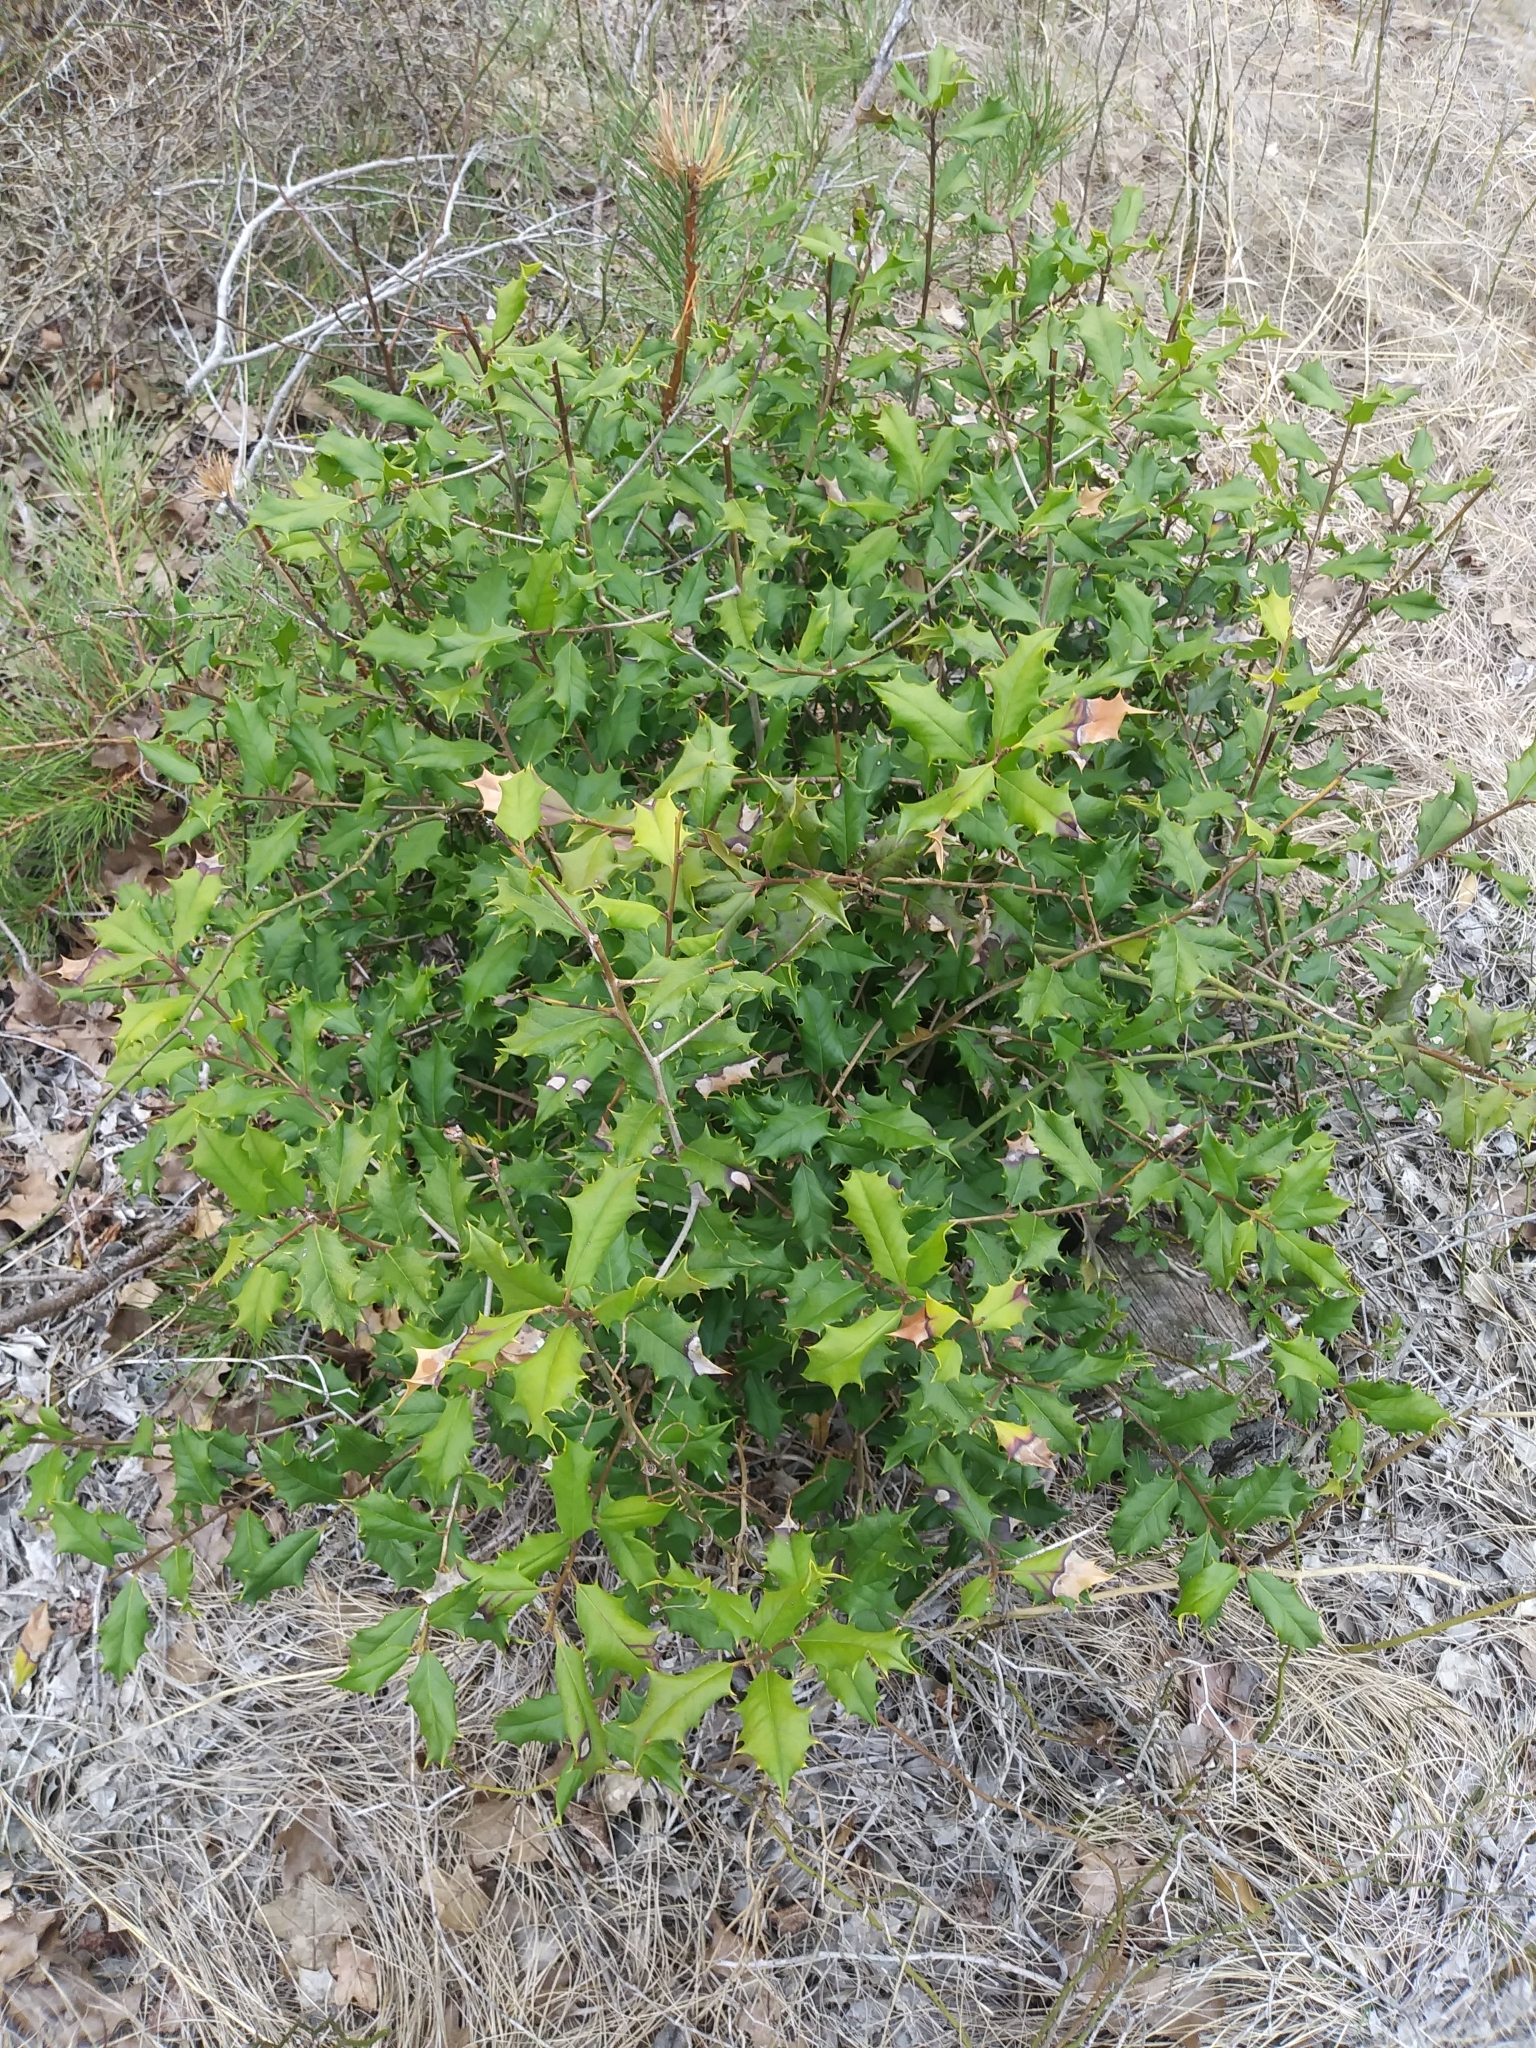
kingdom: Plantae
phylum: Tracheophyta
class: Magnoliopsida
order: Aquifoliales
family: Aquifoliaceae
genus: Ilex
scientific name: Ilex opaca
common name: American holly
